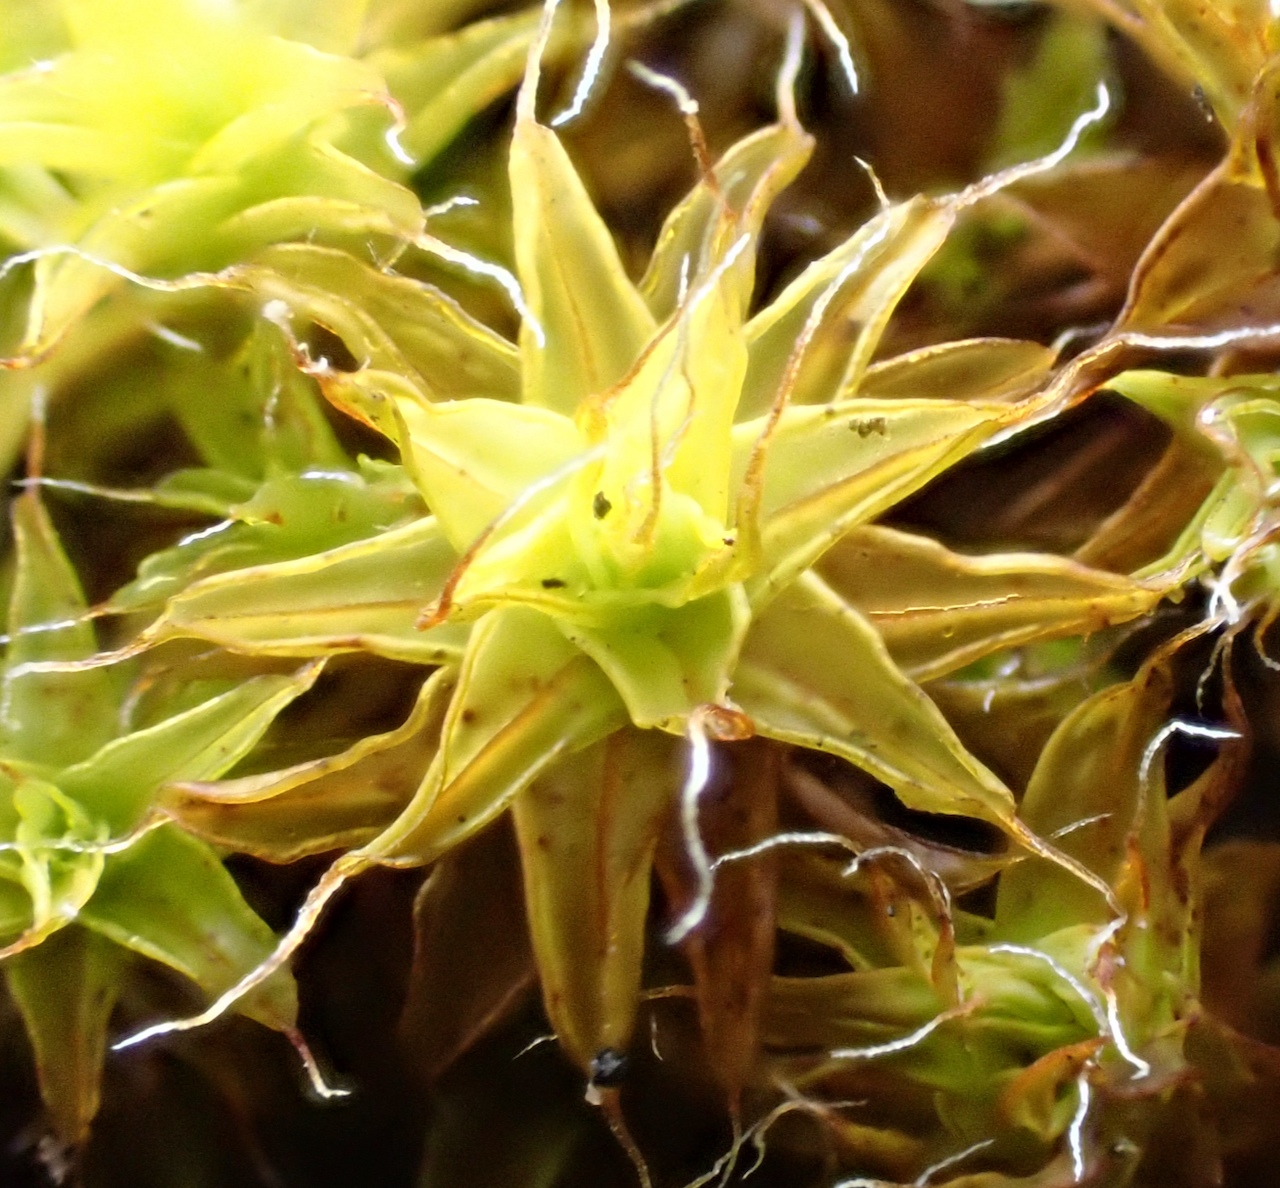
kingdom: Plantae
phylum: Bryophyta
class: Bryopsida
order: Pottiales
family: Pottiaceae
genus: Syntrichia
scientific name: Syntrichia ruralis
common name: Sidewalk screw moss
